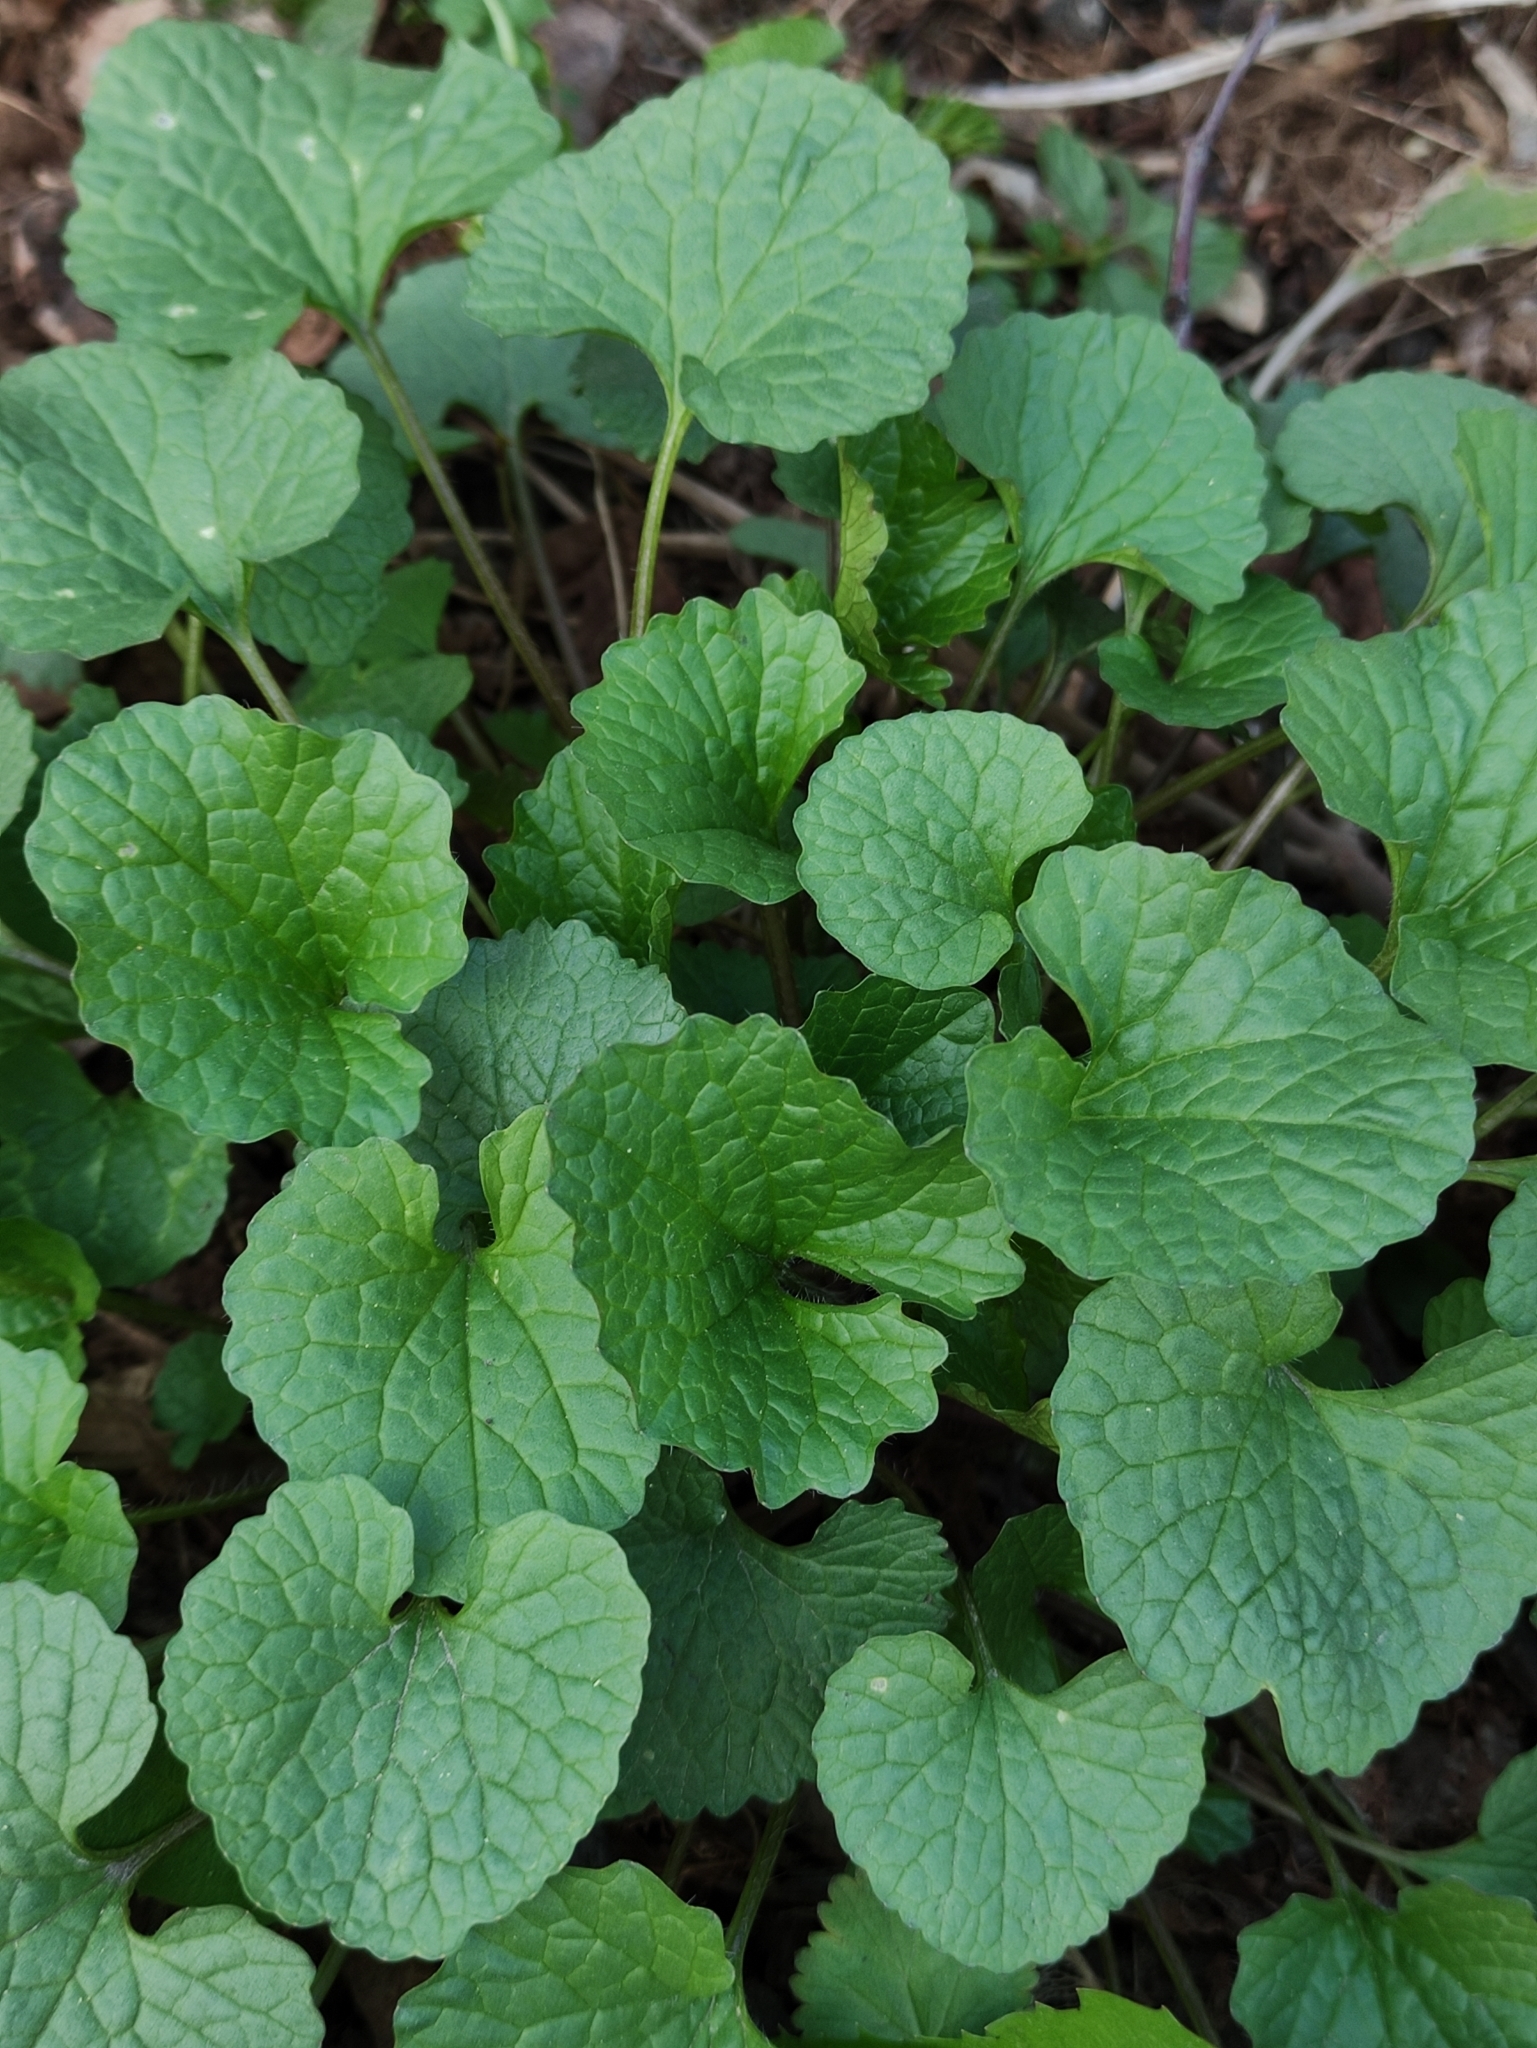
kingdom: Plantae
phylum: Tracheophyta
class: Magnoliopsida
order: Brassicales
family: Brassicaceae
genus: Alliaria
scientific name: Alliaria petiolata
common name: Garlic mustard
